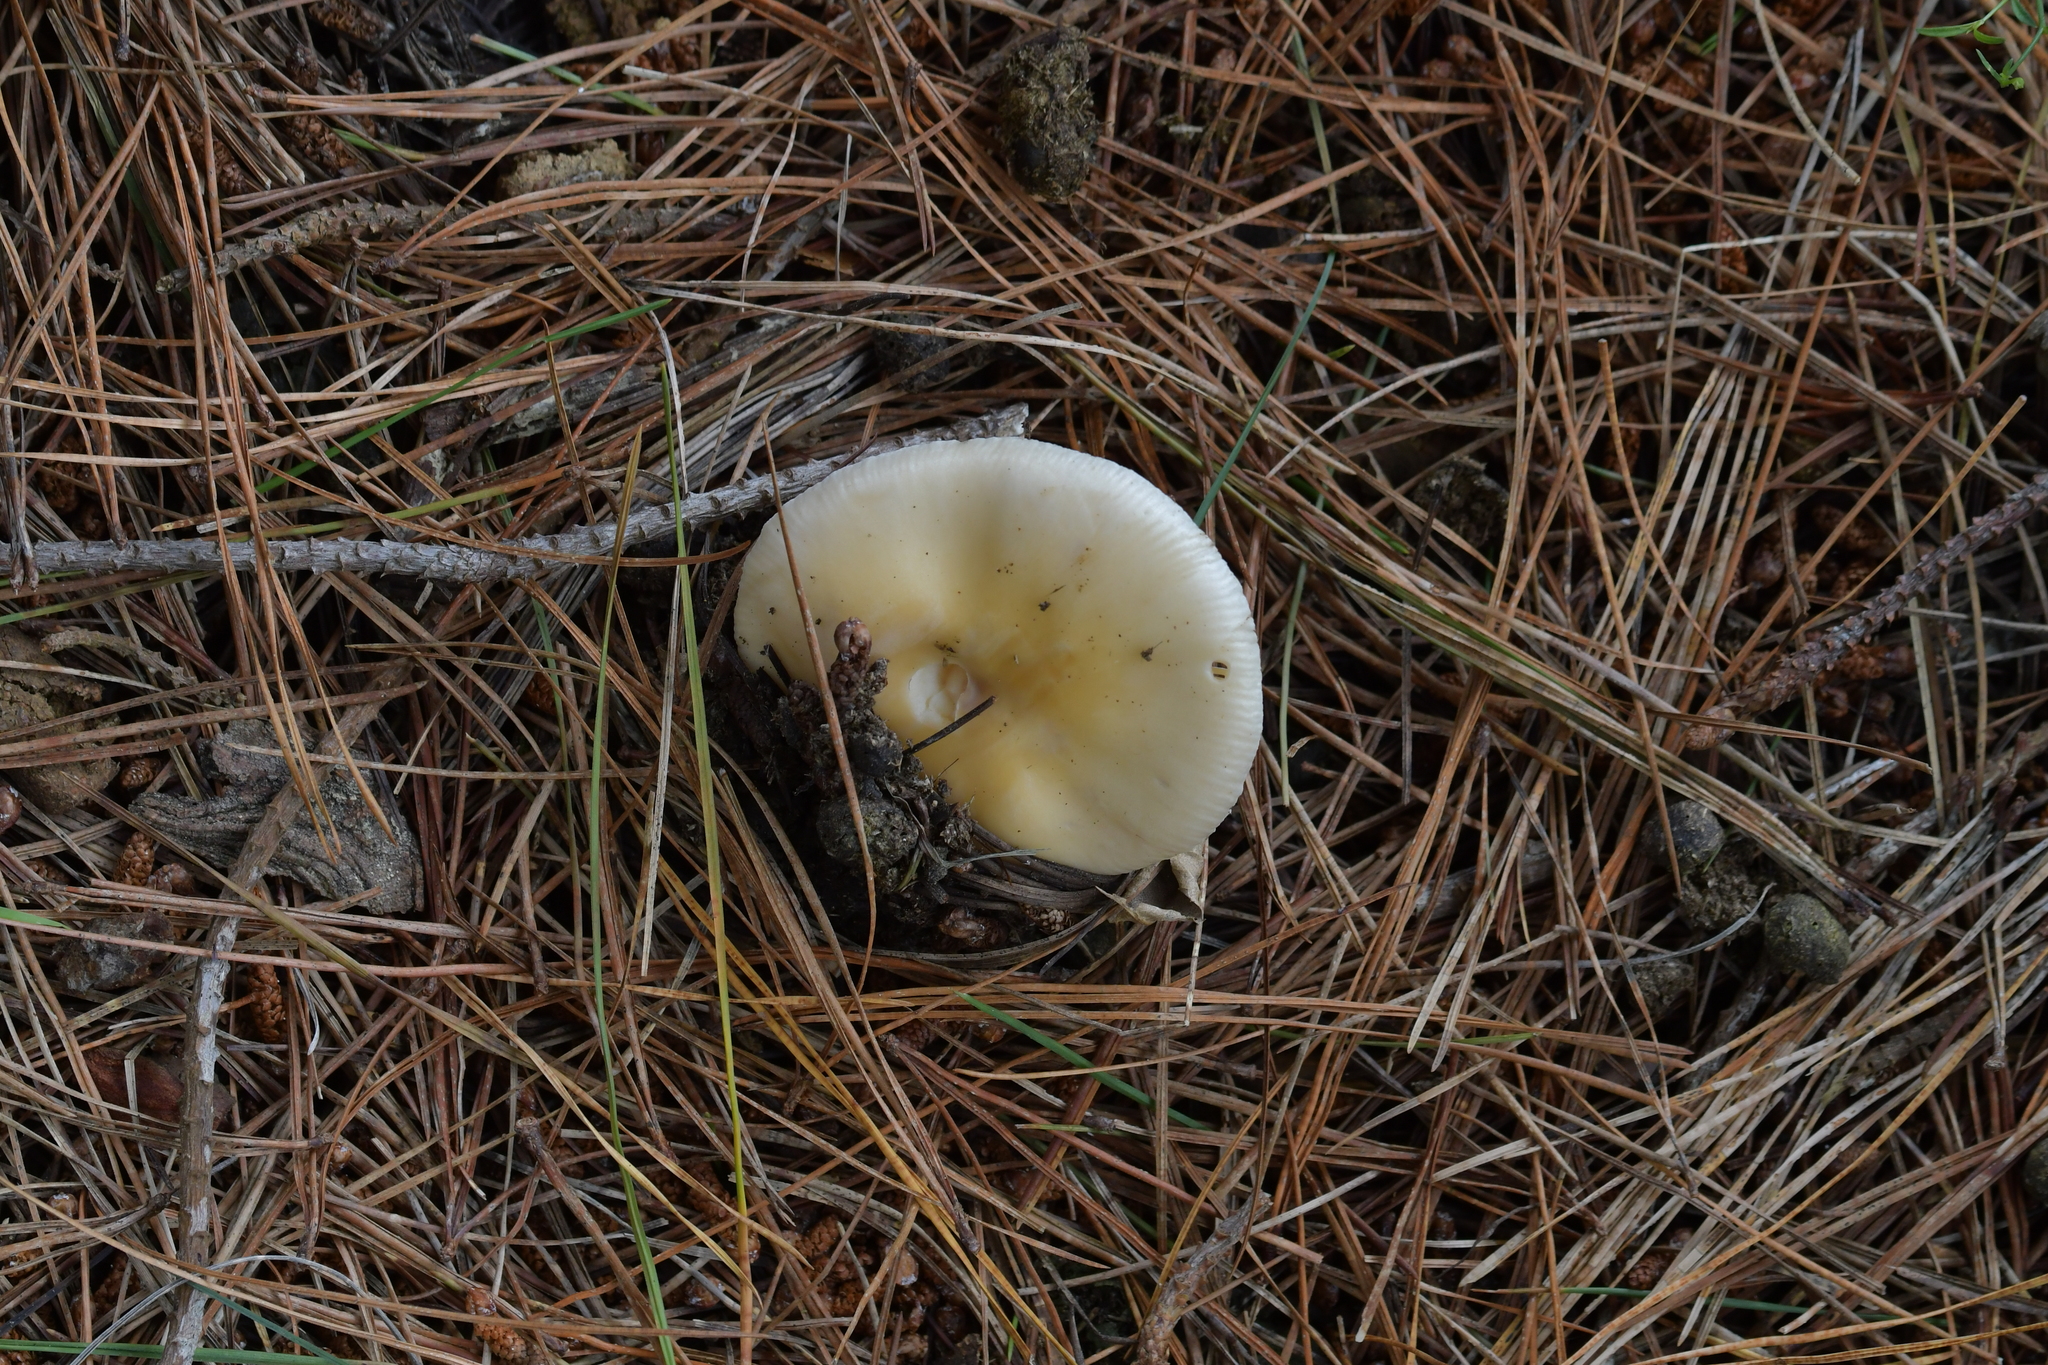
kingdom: Fungi
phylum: Basidiomycota
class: Agaricomycetes
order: Agaricales
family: Amanitaceae
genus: Amanita
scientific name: Amanita gemmata
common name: Jewelled amanita
